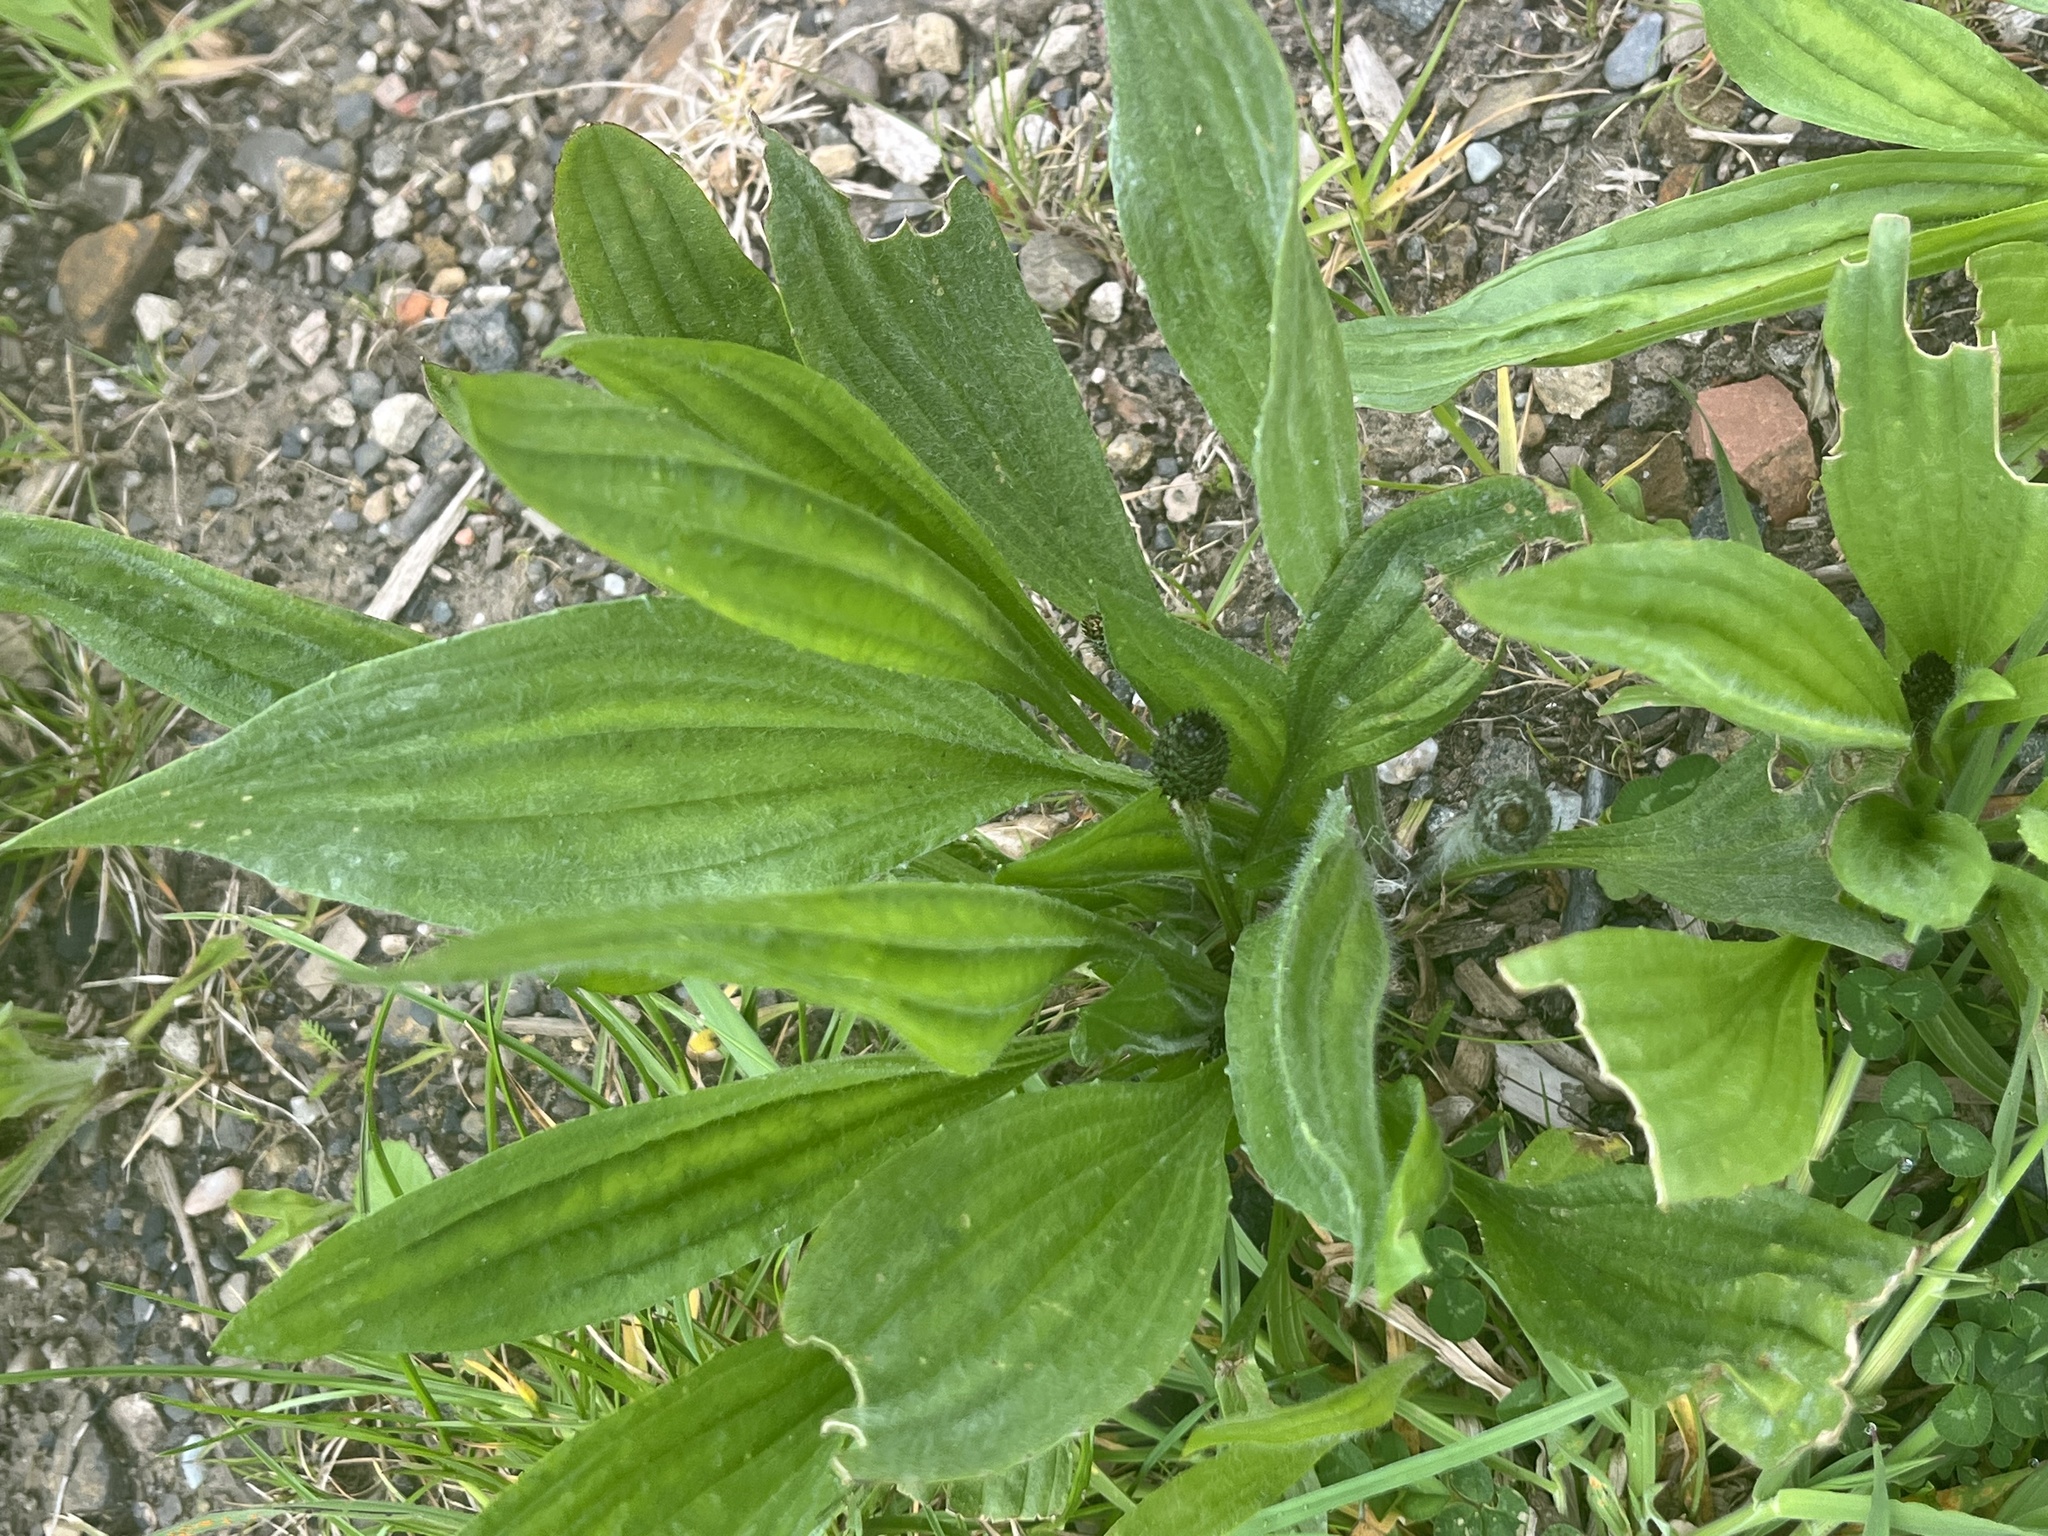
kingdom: Plantae
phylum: Tracheophyta
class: Magnoliopsida
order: Lamiales
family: Plantaginaceae
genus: Plantago
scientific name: Plantago lanceolata
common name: Ribwort plantain
